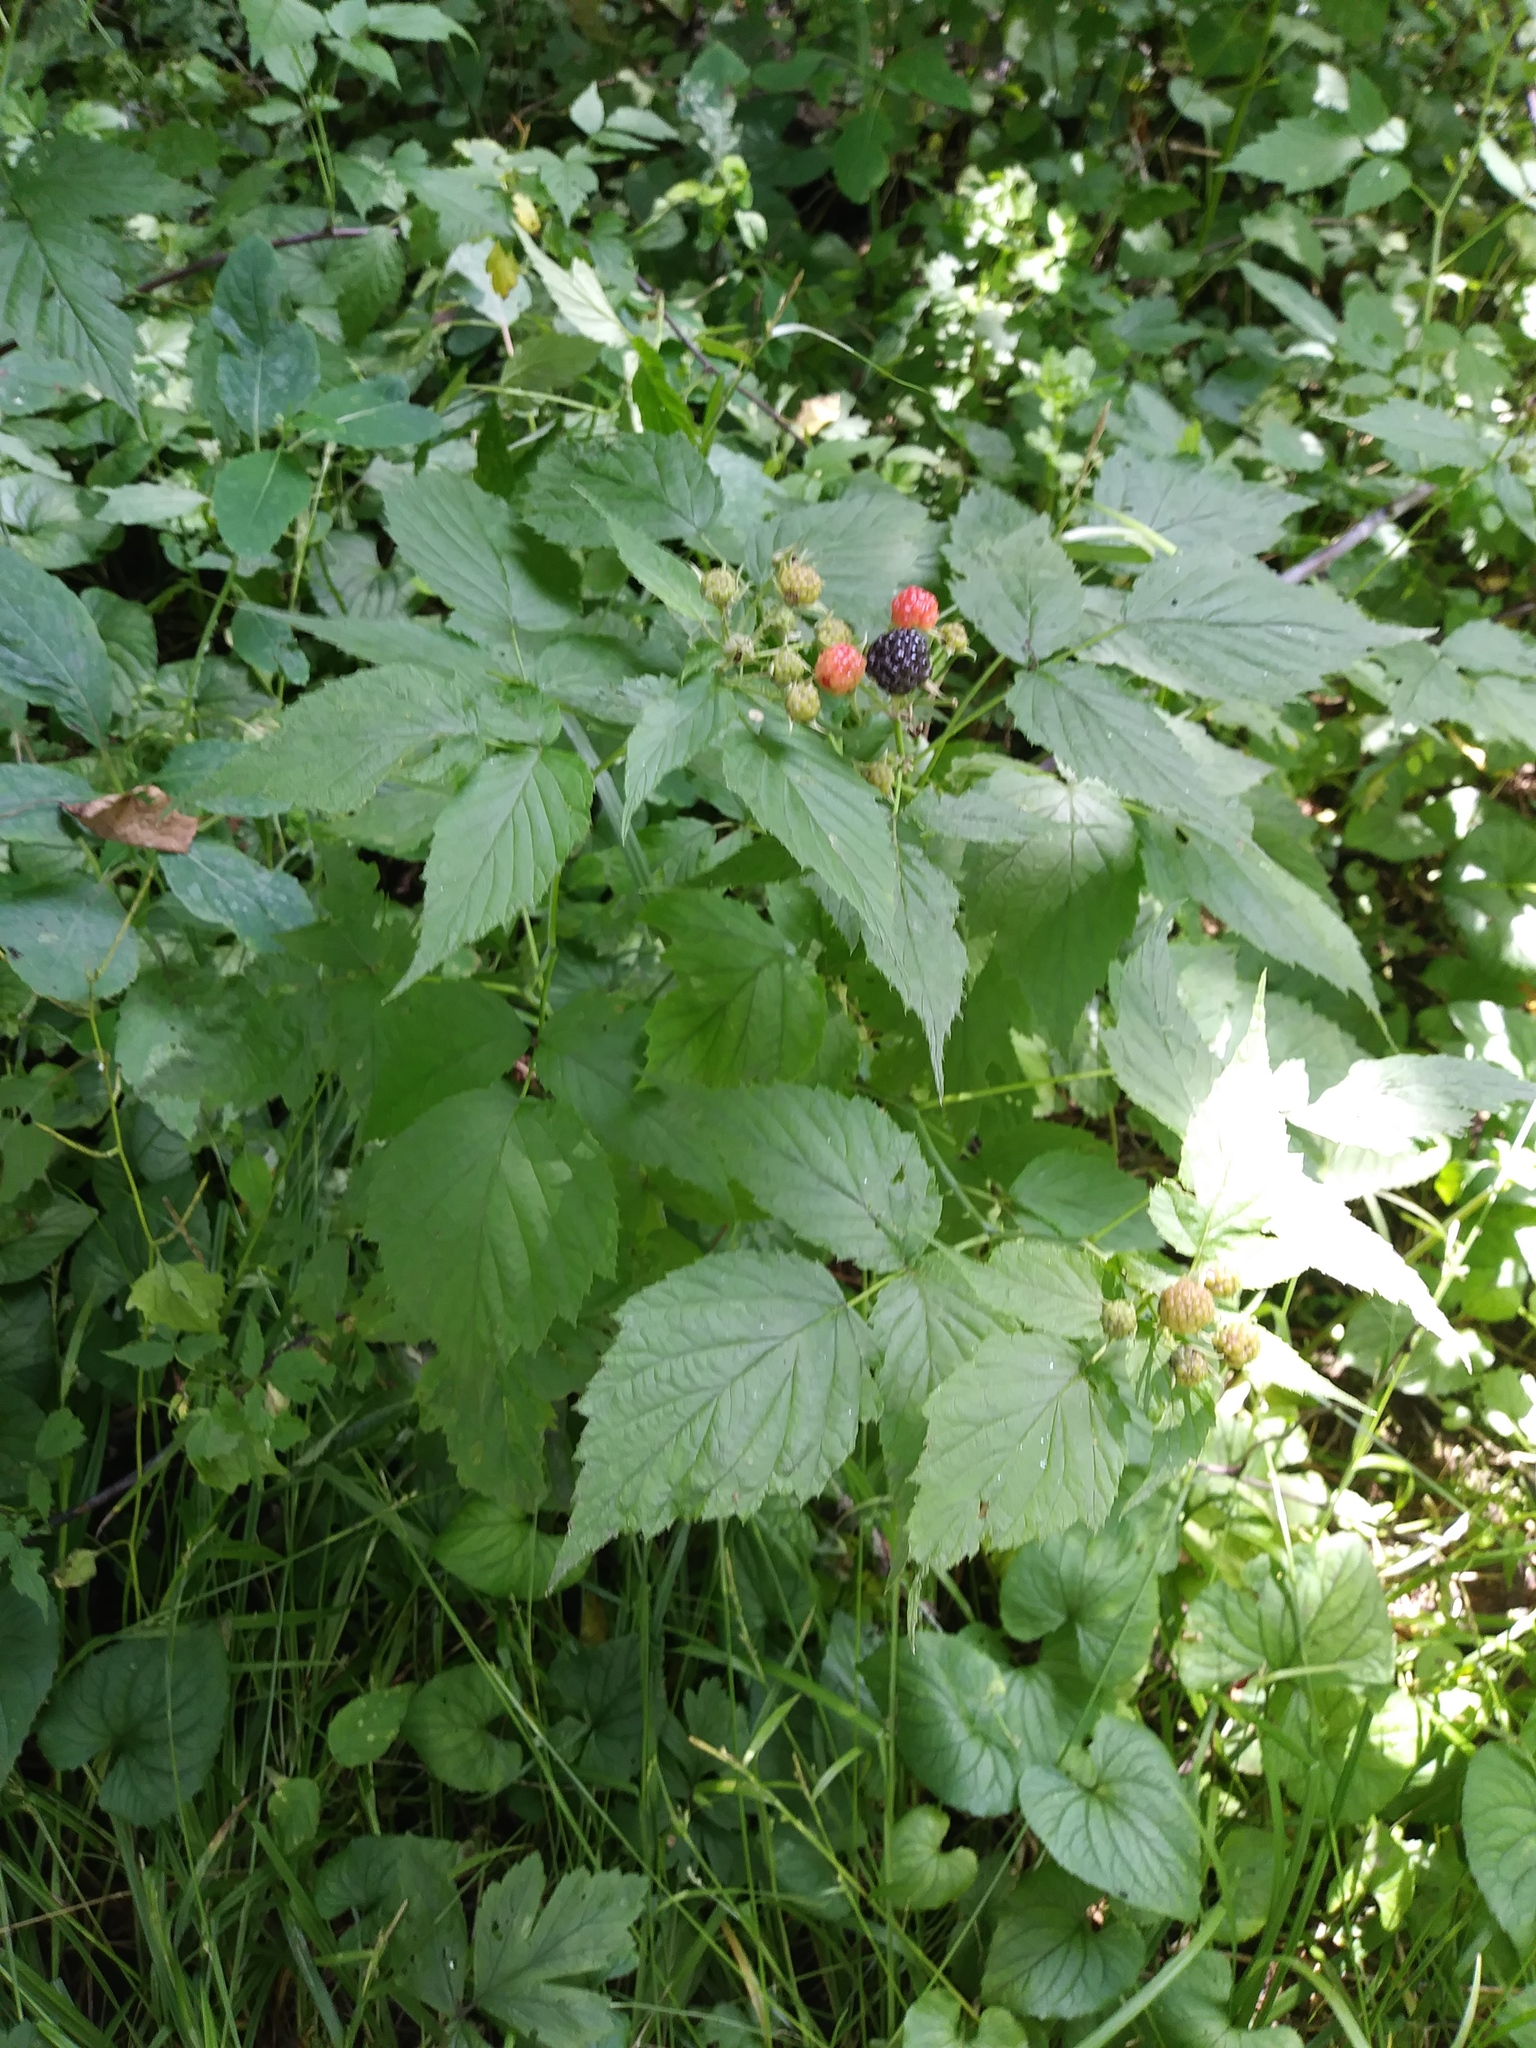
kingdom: Plantae
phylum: Tracheophyta
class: Magnoliopsida
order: Rosales
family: Rosaceae
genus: Rubus
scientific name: Rubus occidentalis
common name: Black raspberry
